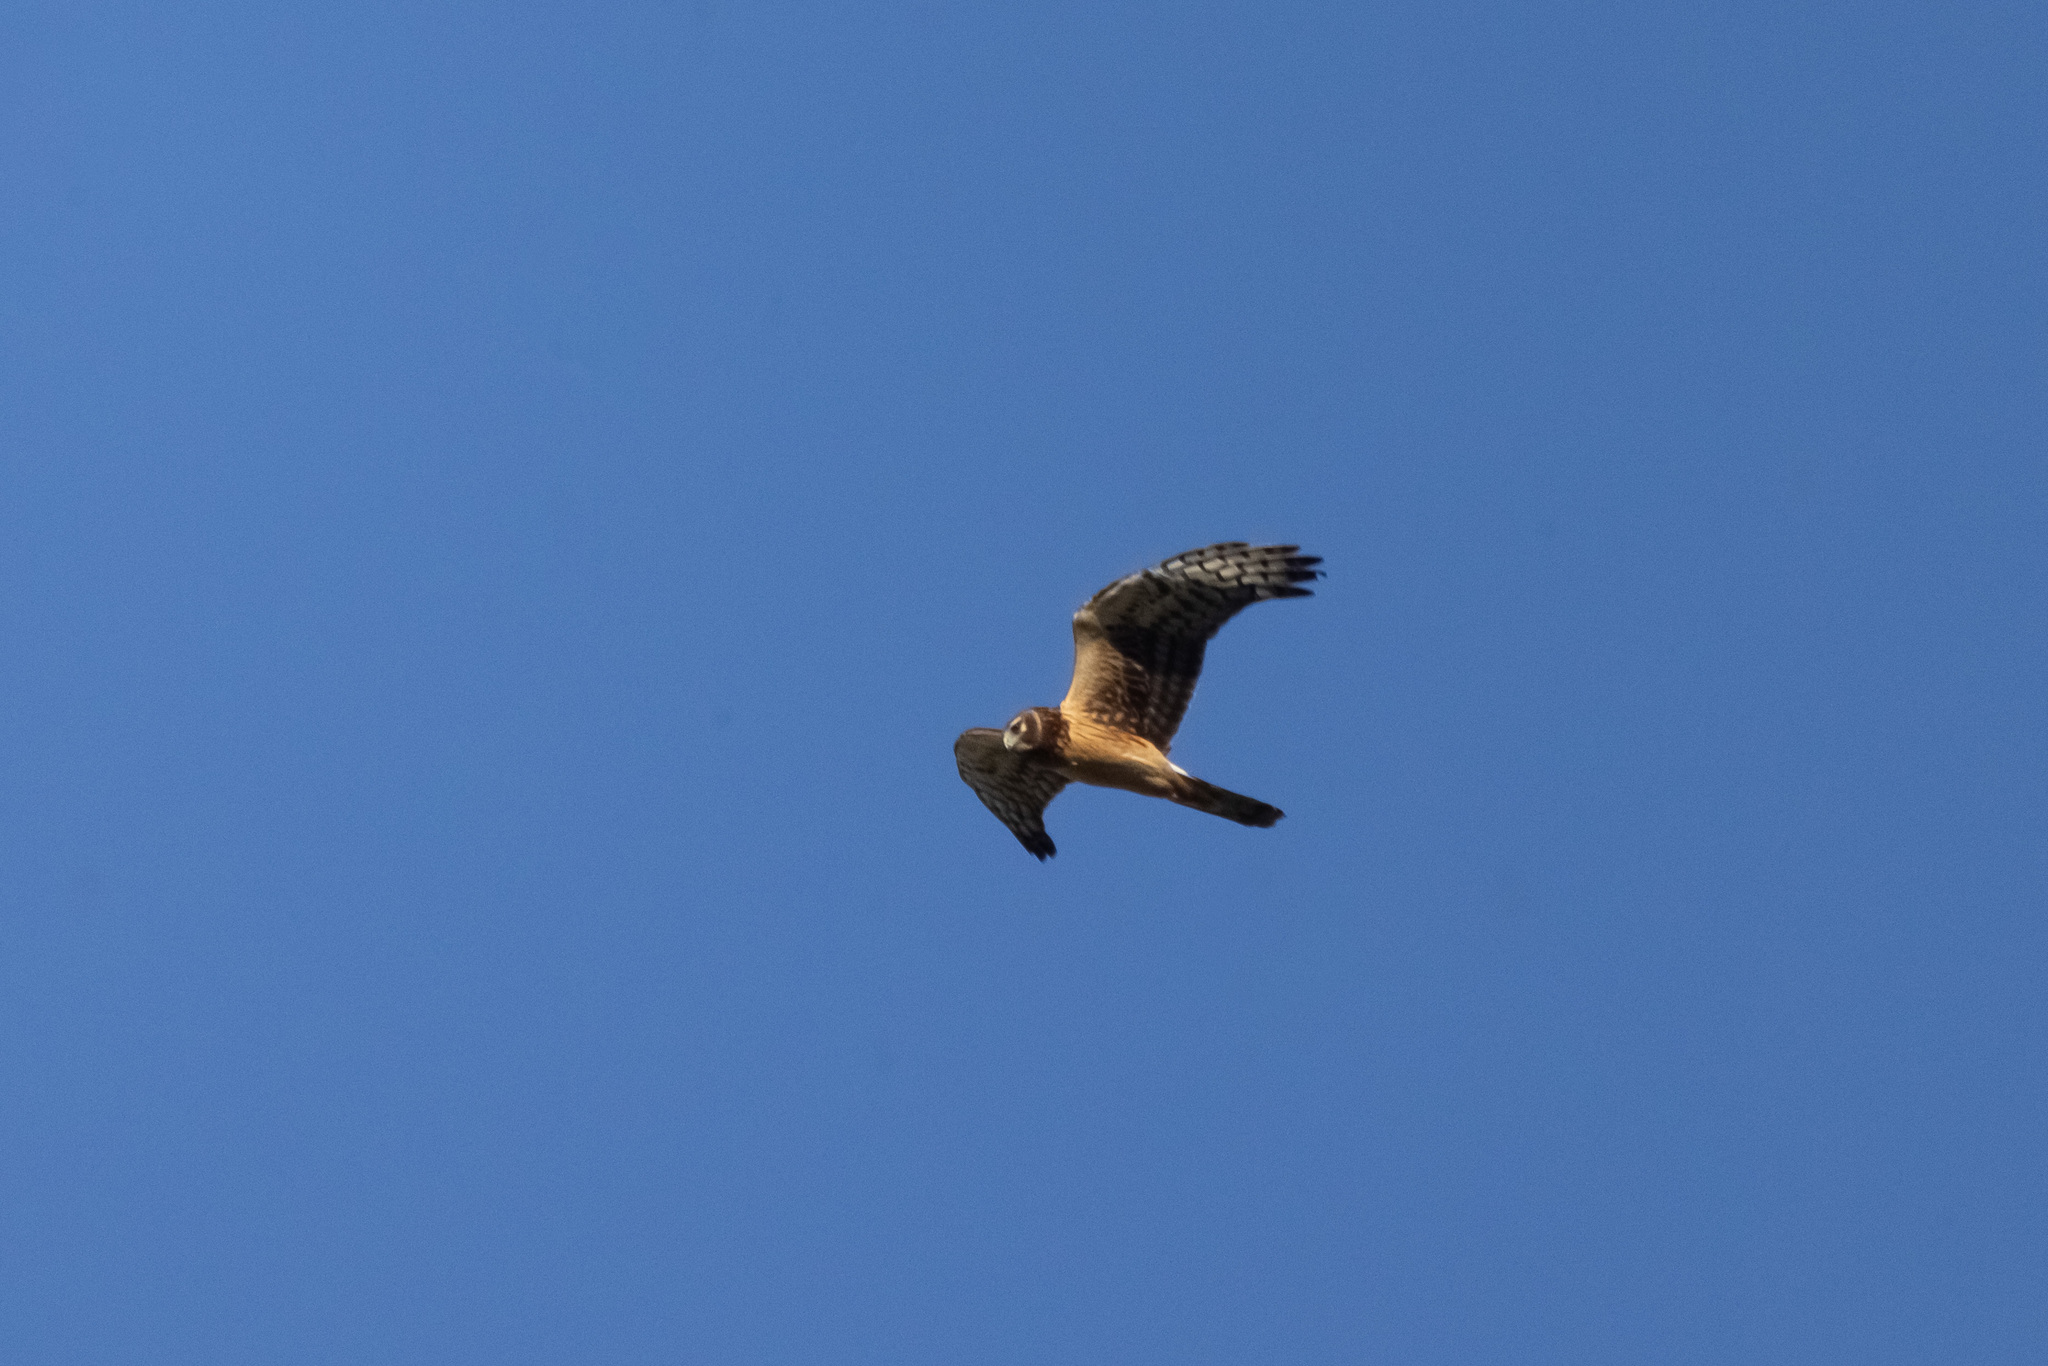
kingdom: Animalia
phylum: Chordata
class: Aves
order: Accipitriformes
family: Accipitridae
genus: Circus
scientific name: Circus cyaneus
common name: Hen harrier
